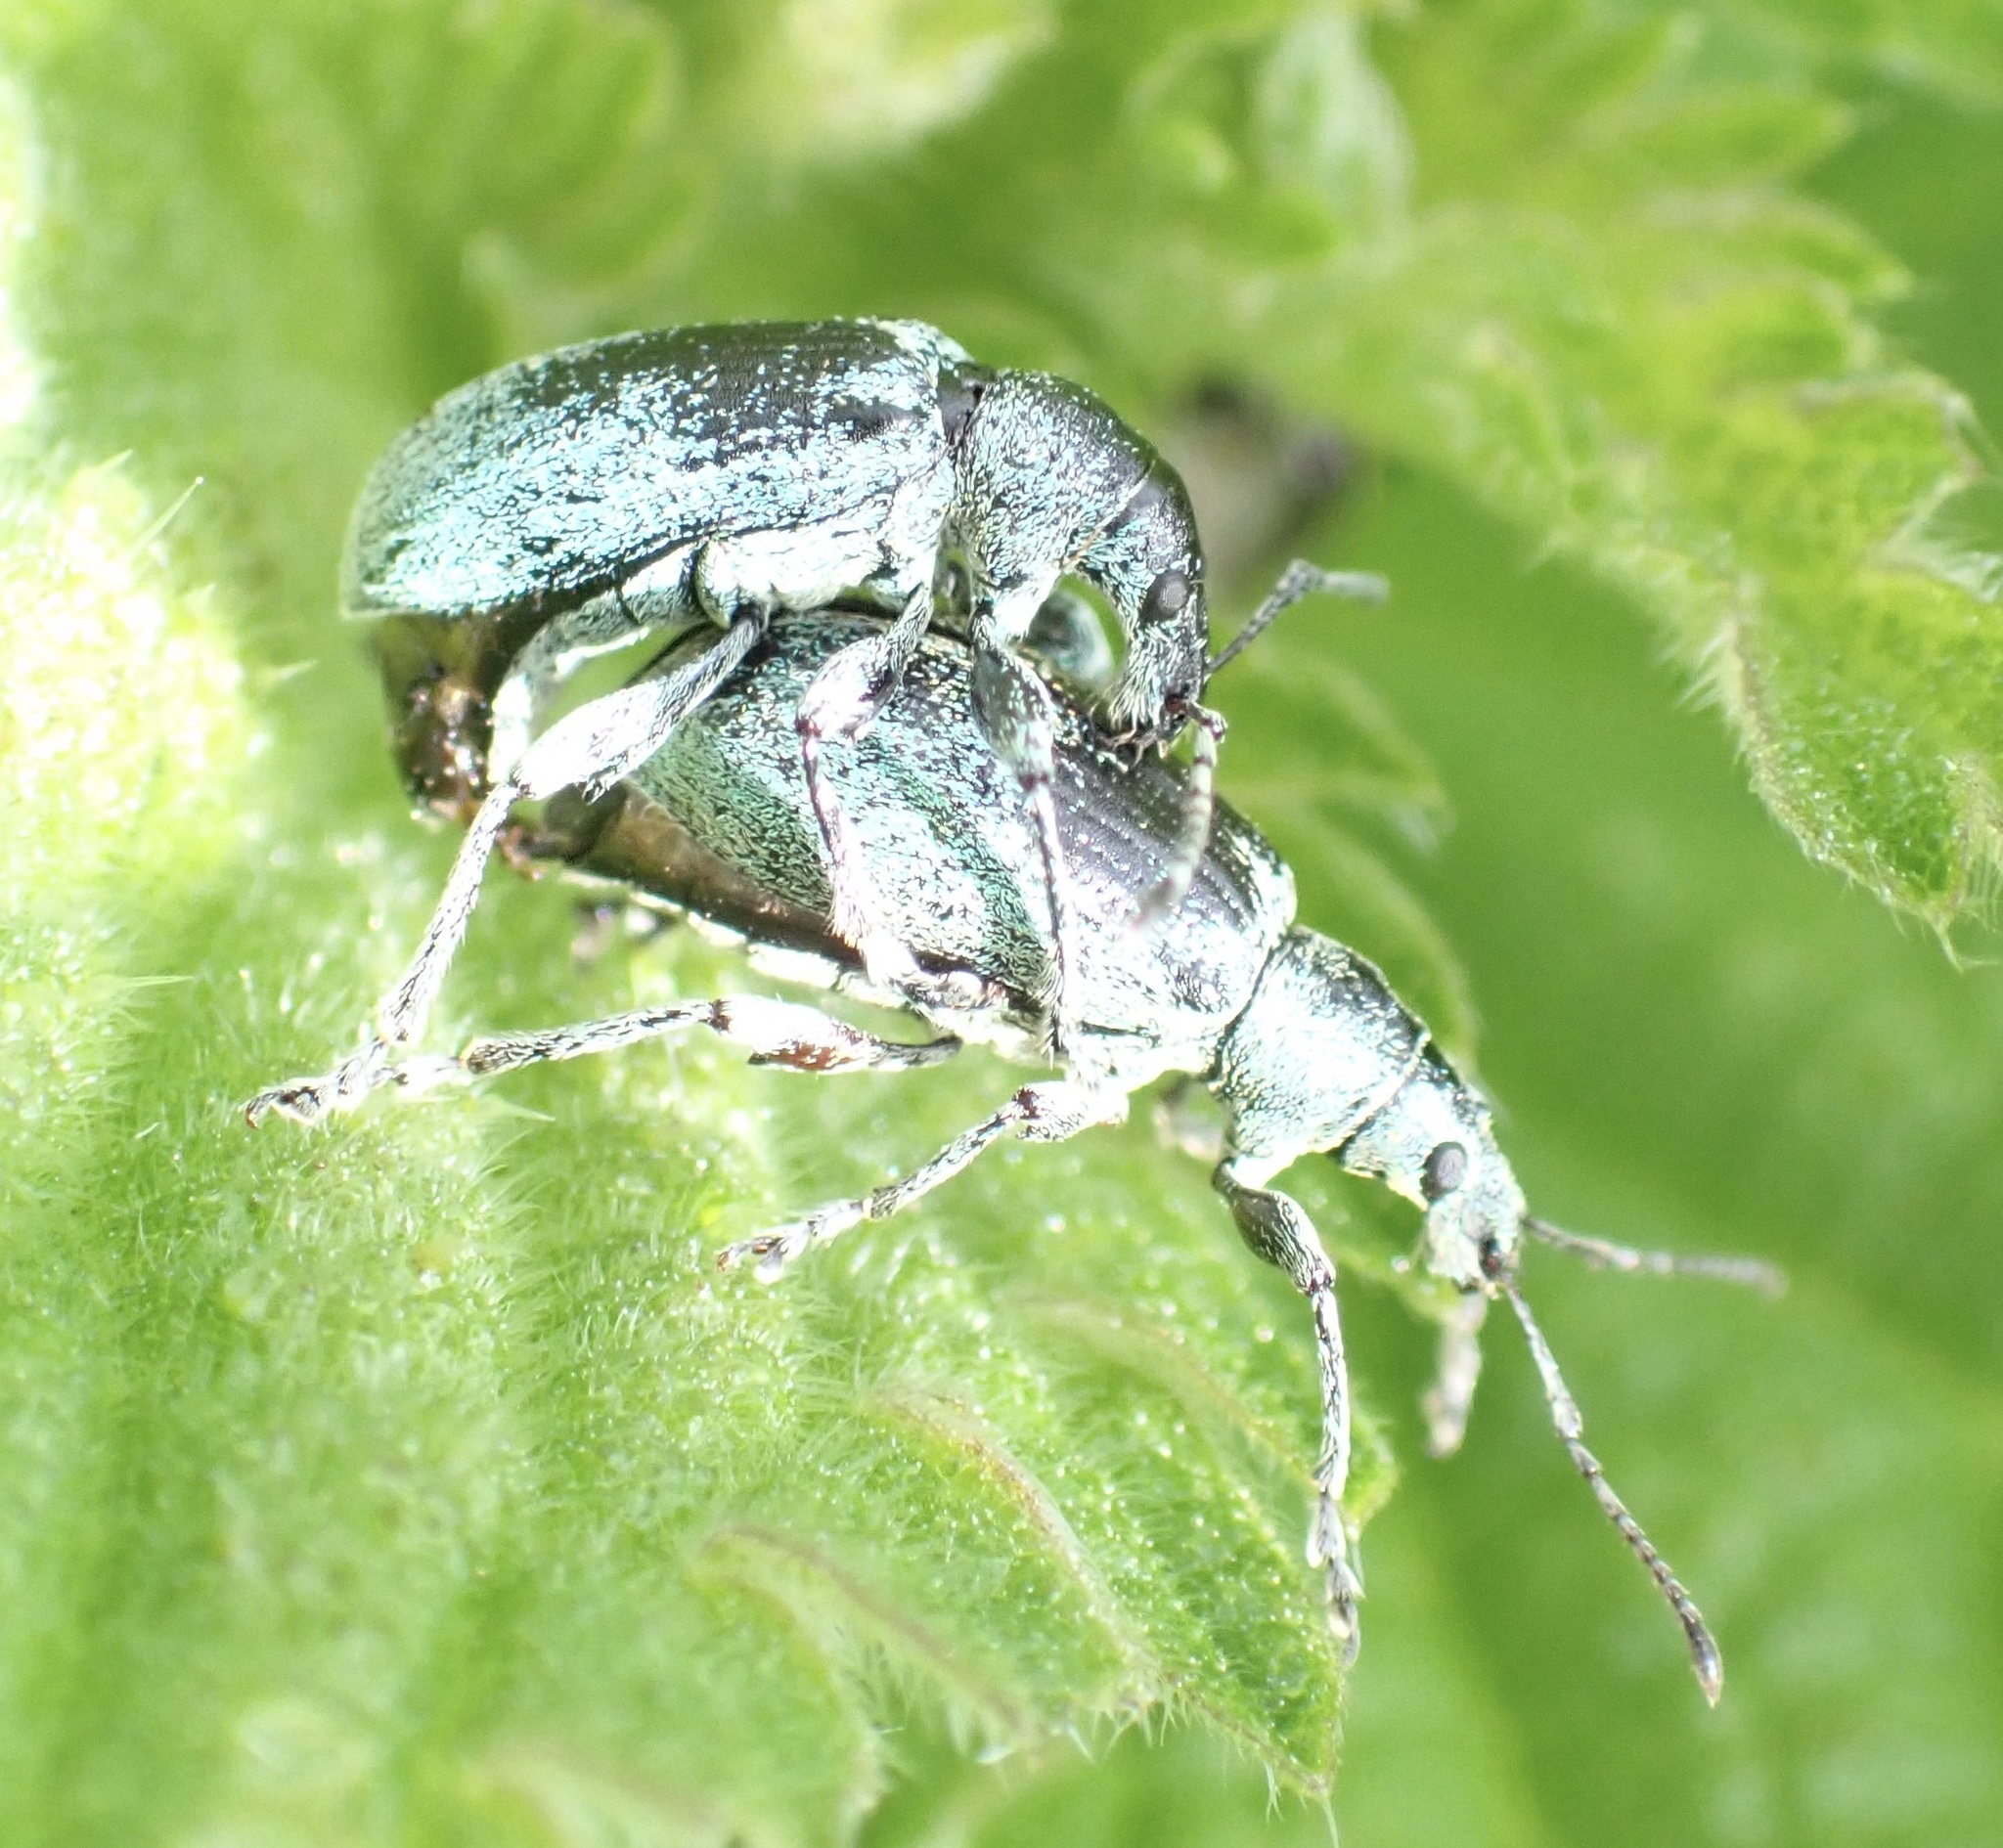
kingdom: Animalia
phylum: Arthropoda
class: Insecta
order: Coleoptera
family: Curculionidae
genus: Phyllobius
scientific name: Phyllobius pomaceus
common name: Green nettle weevil
